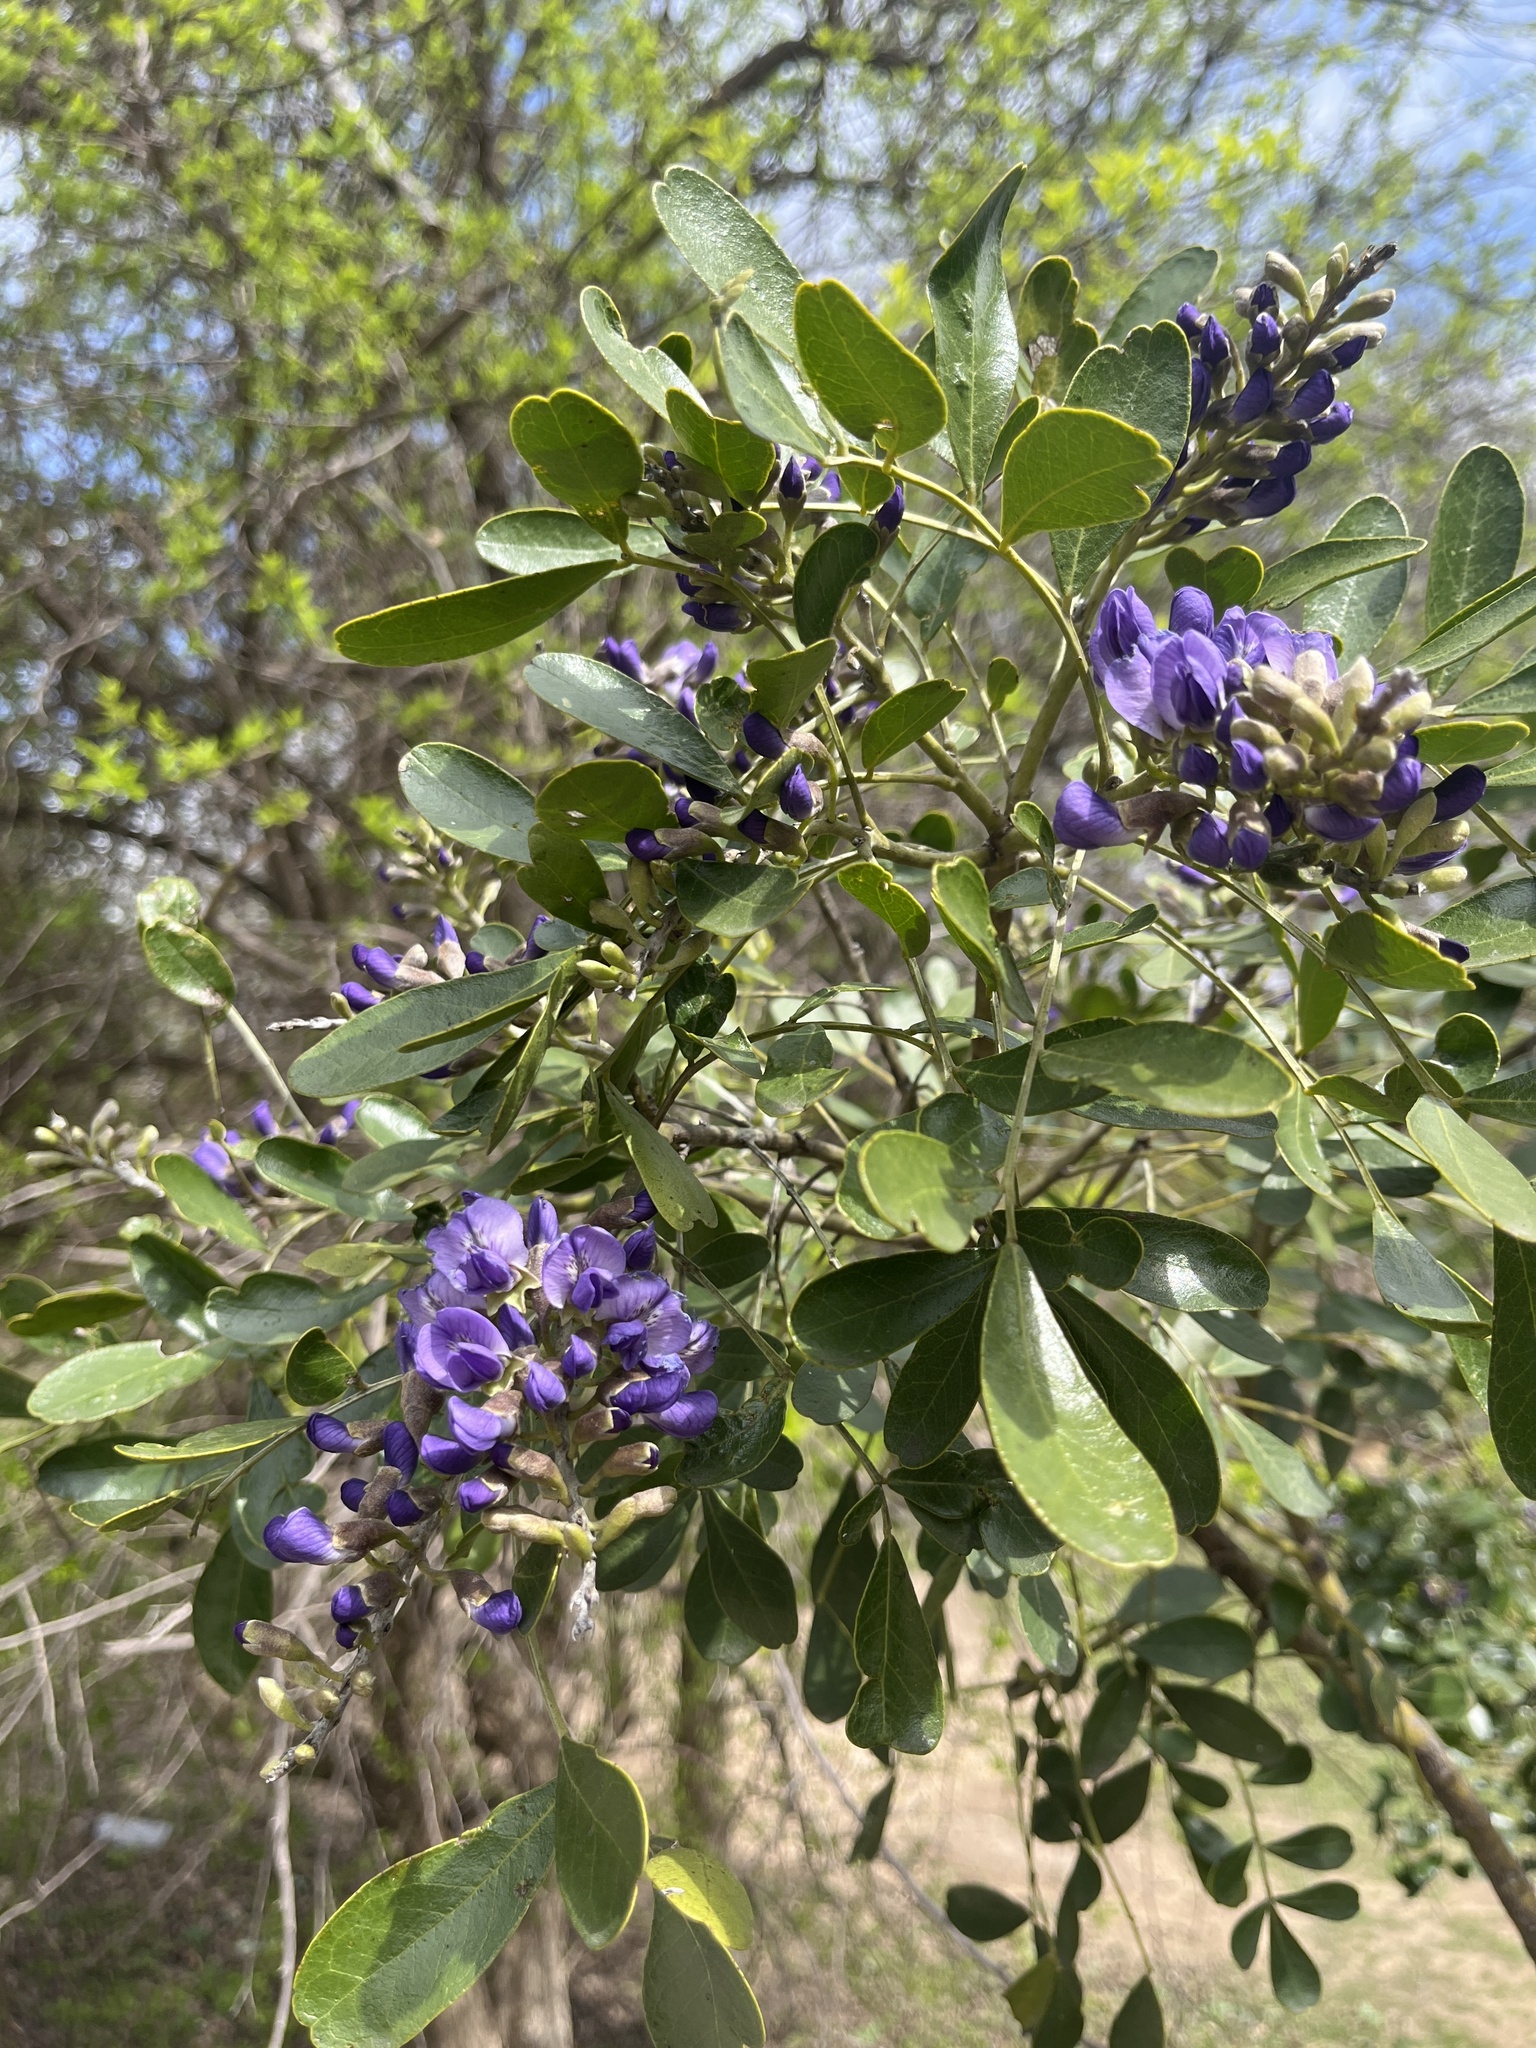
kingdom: Plantae
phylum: Tracheophyta
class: Magnoliopsida
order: Fabales
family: Fabaceae
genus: Dermatophyllum
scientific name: Dermatophyllum secundiflorum
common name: Texas-mountain-laurel
